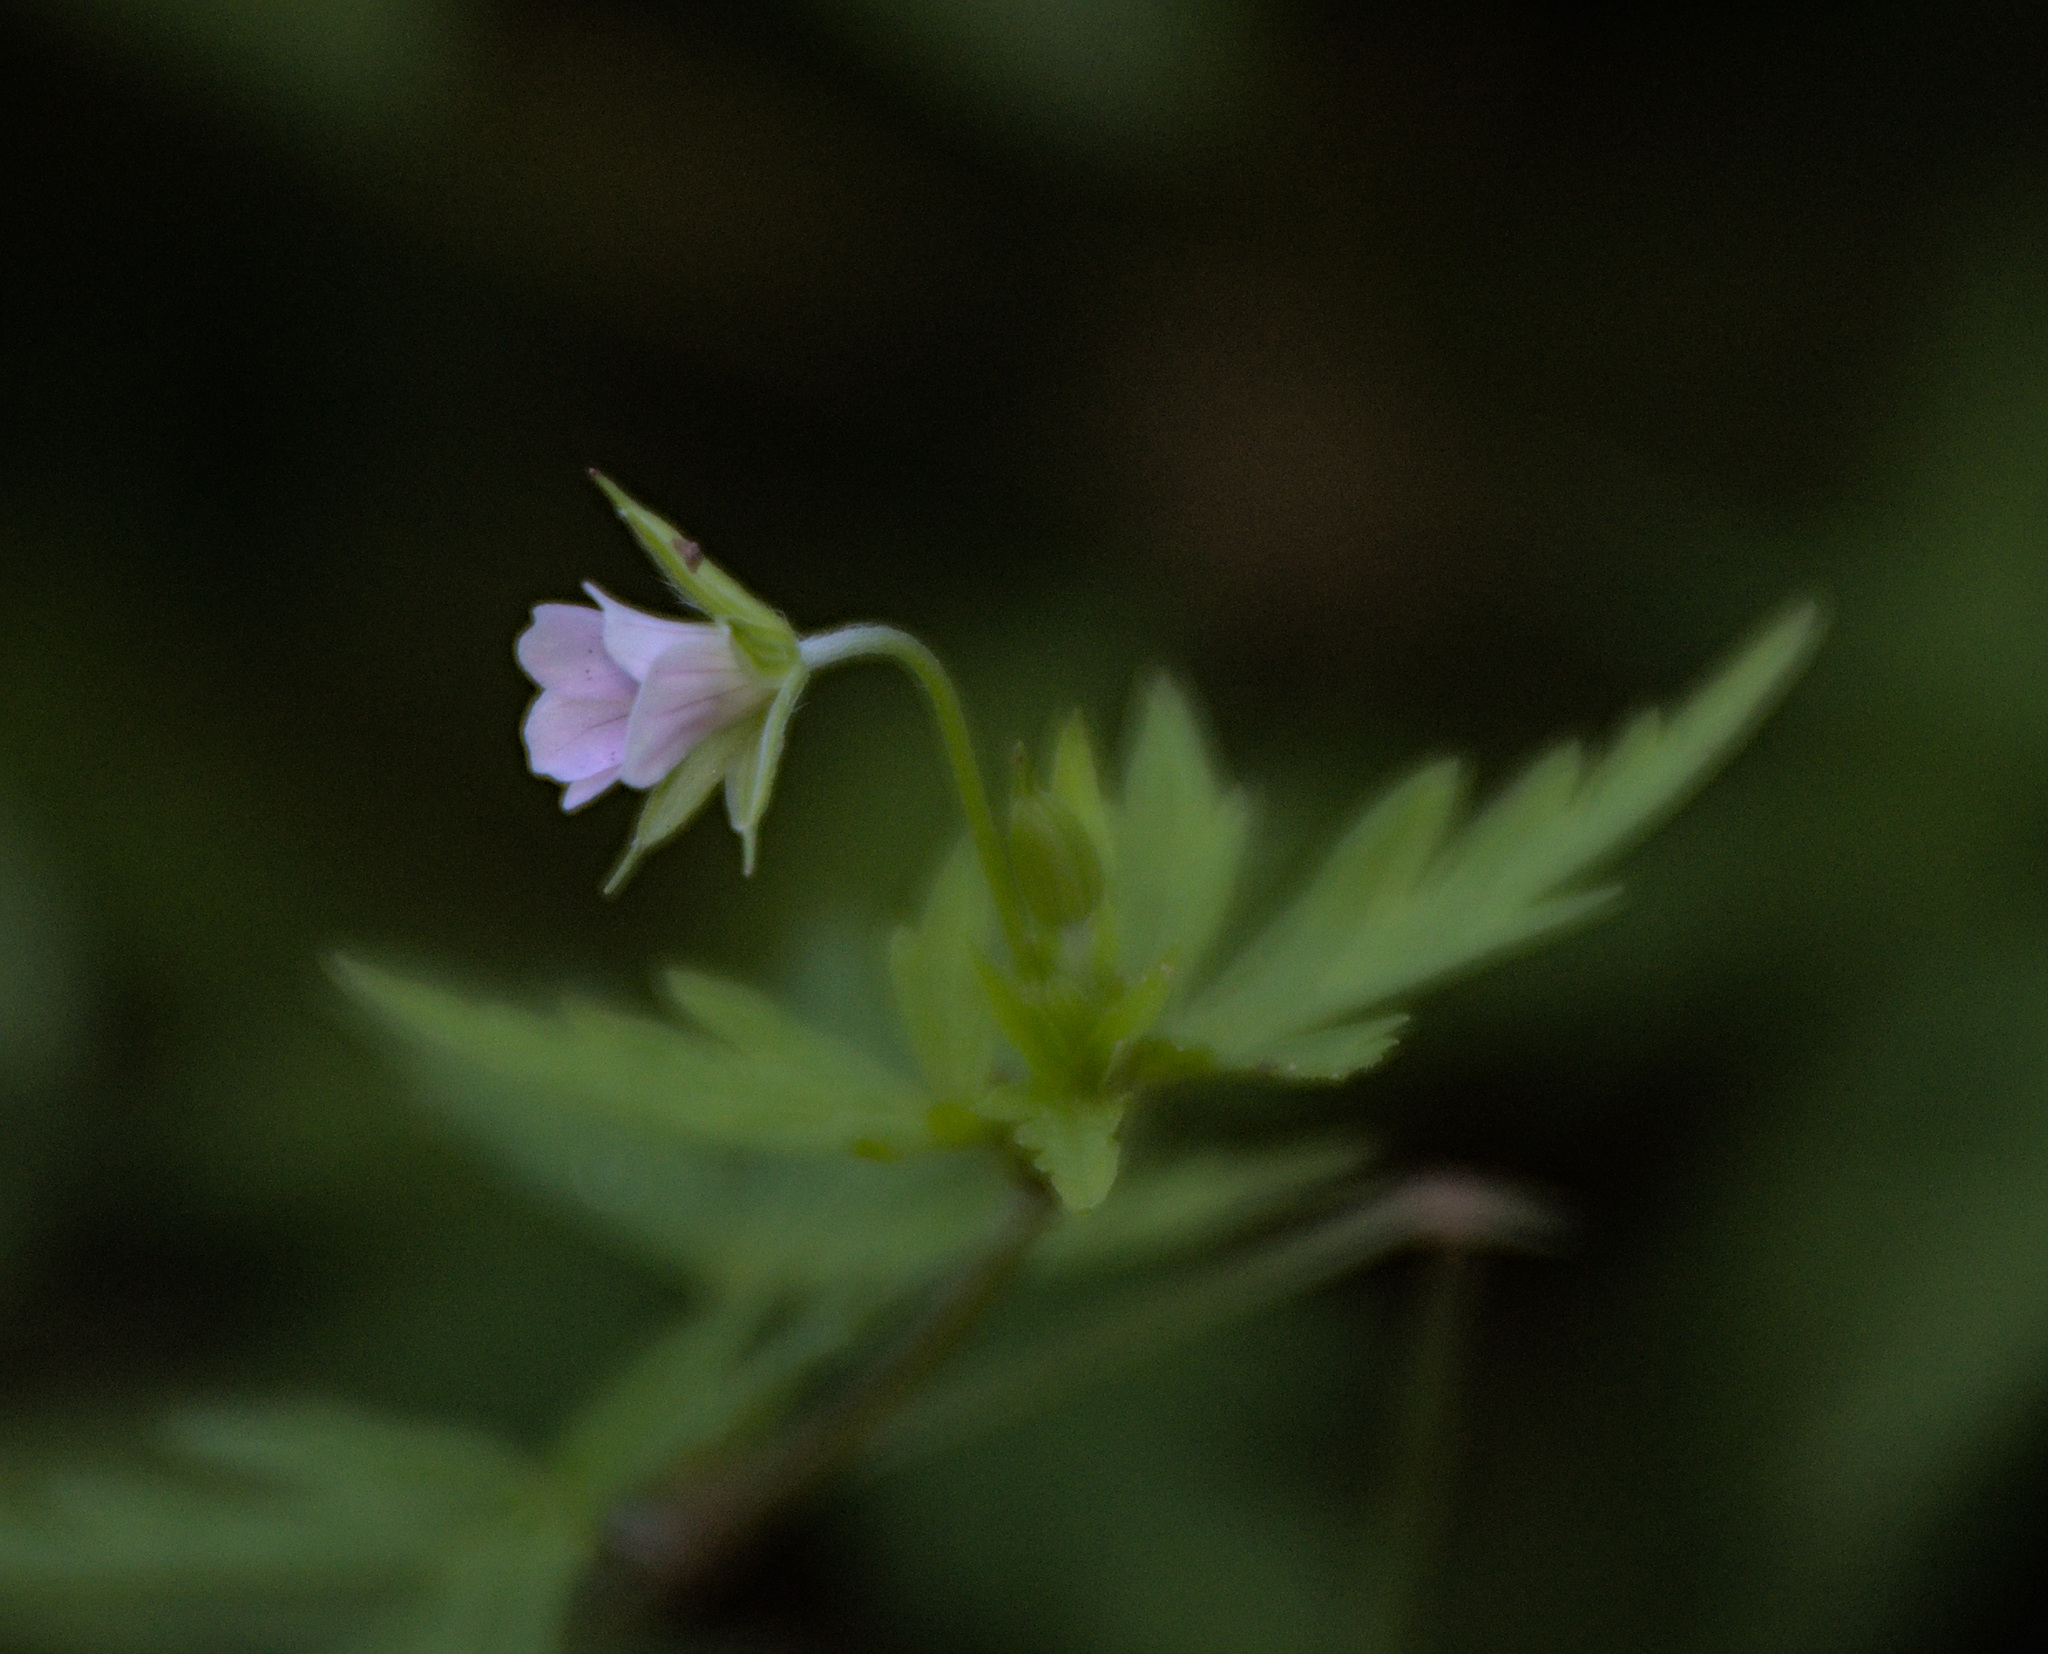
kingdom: Plantae
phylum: Tracheophyta
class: Magnoliopsida
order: Geraniales
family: Geraniaceae
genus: Geranium
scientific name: Geranium sibiricum
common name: Siberian crane's-bill
